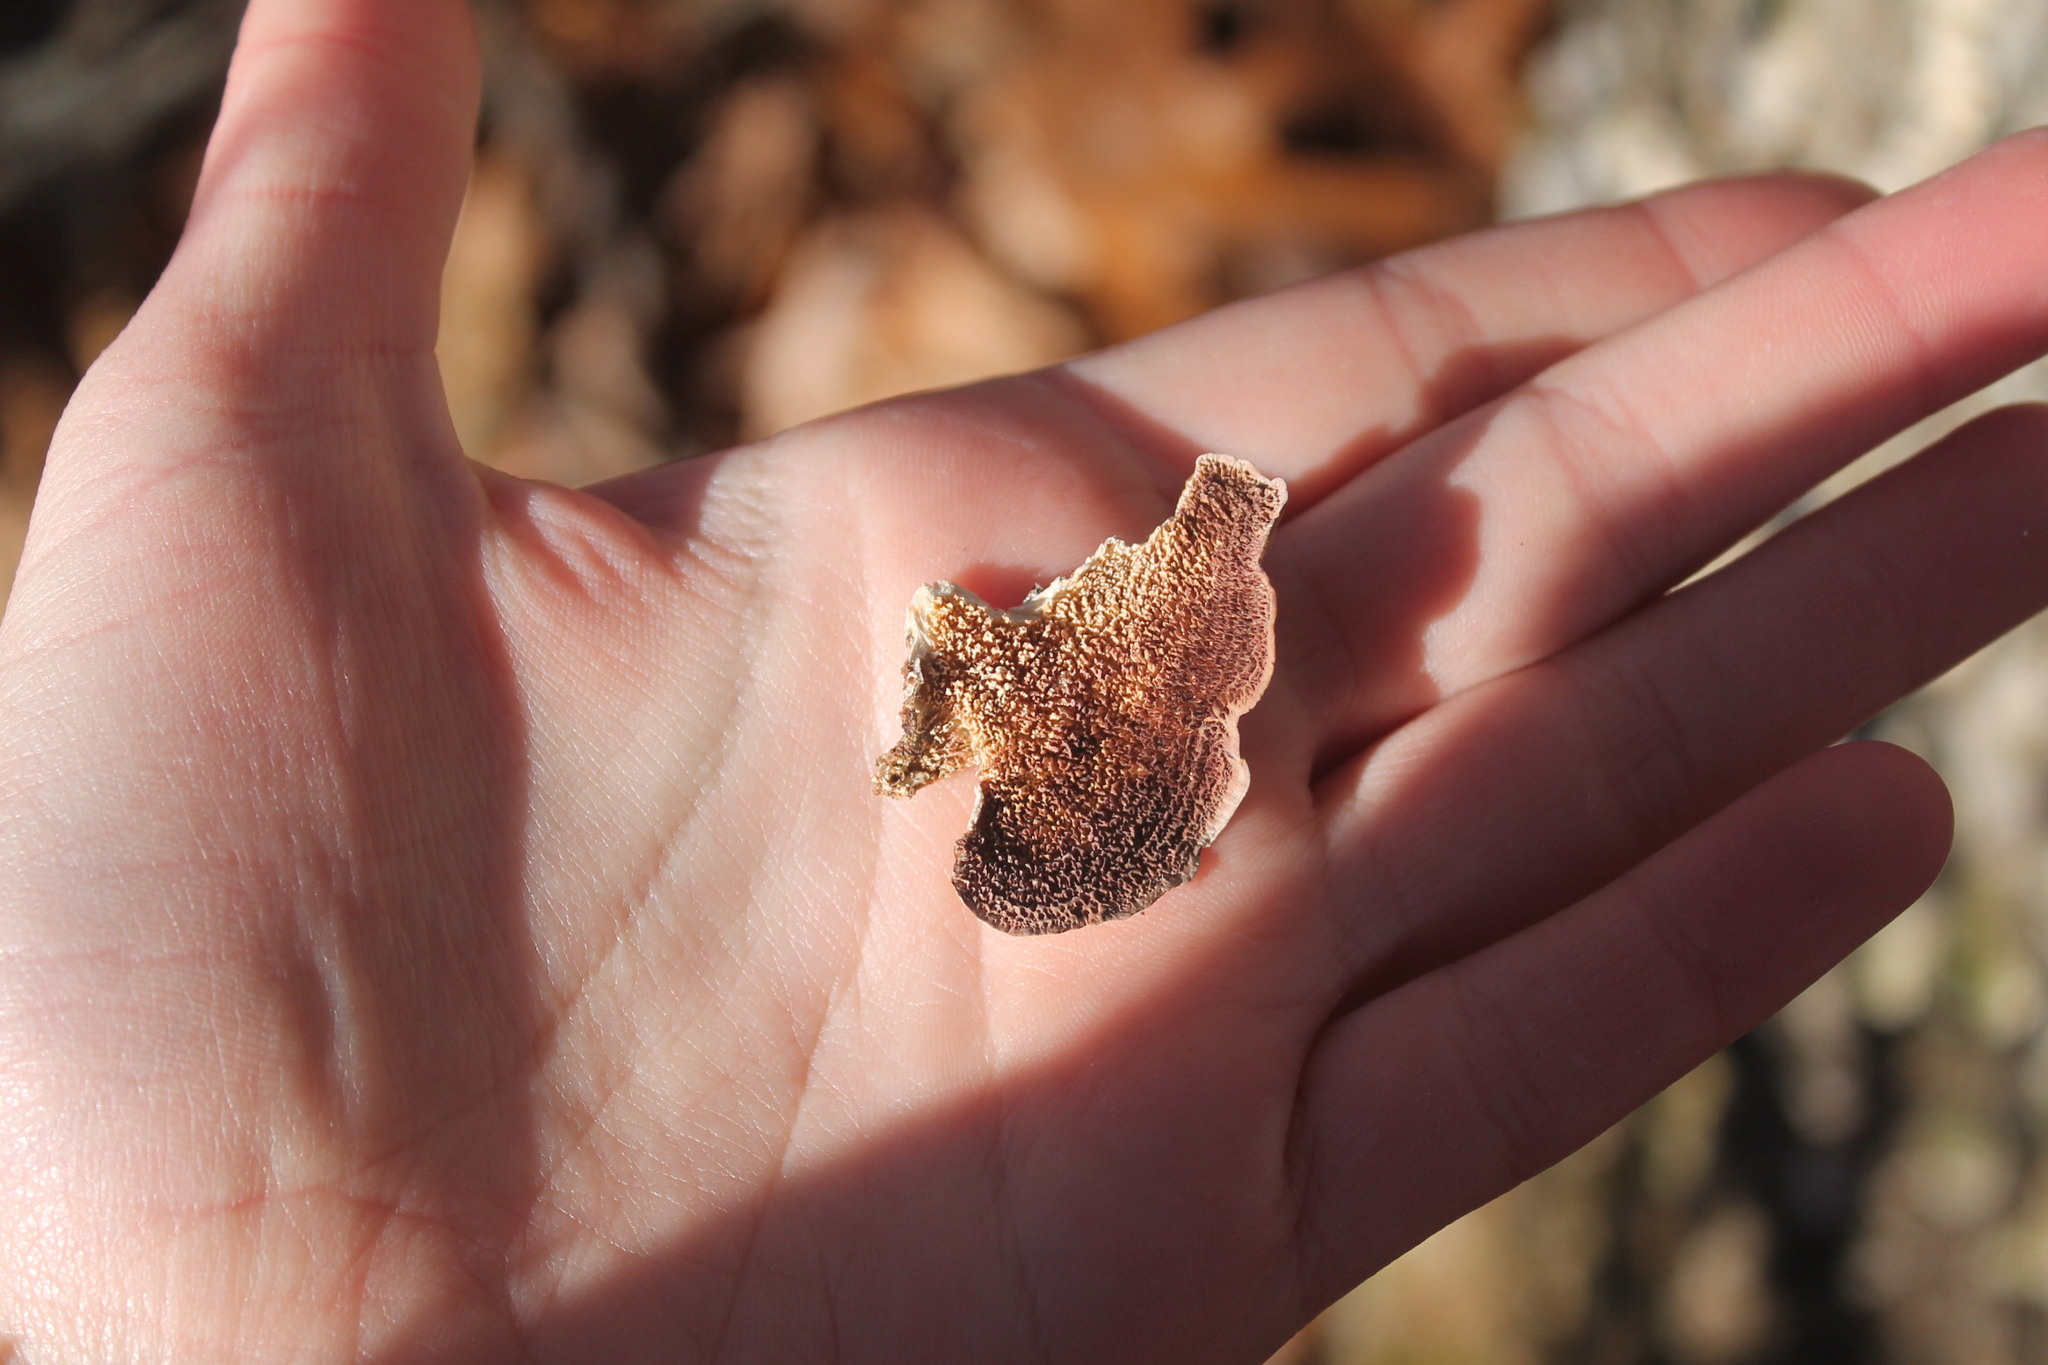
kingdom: Fungi
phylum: Basidiomycota
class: Agaricomycetes
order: Hymenochaetales
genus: Trichaptum
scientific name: Trichaptum biforme
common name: Violet-toothed polypore
